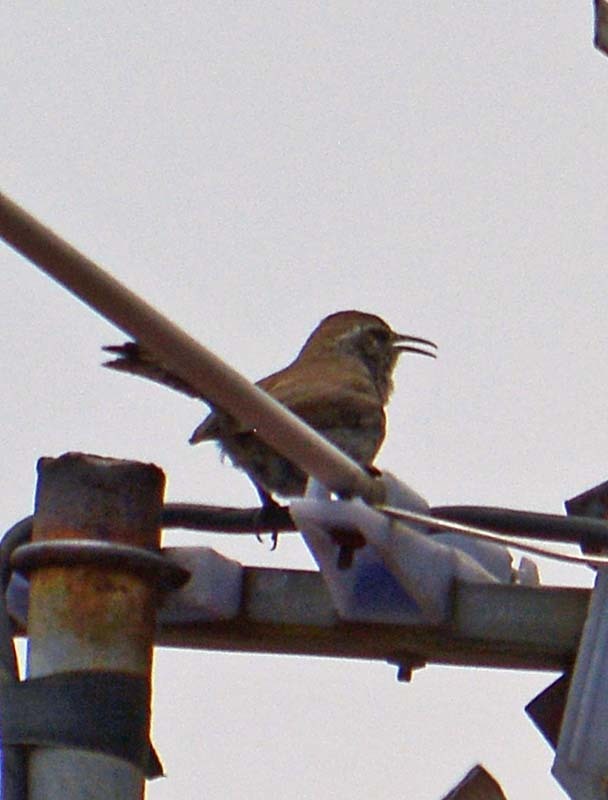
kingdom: Animalia
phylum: Chordata
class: Aves
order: Passeriformes
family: Troglodytidae
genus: Thryomanes
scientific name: Thryomanes bewickii
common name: Bewick's wren
